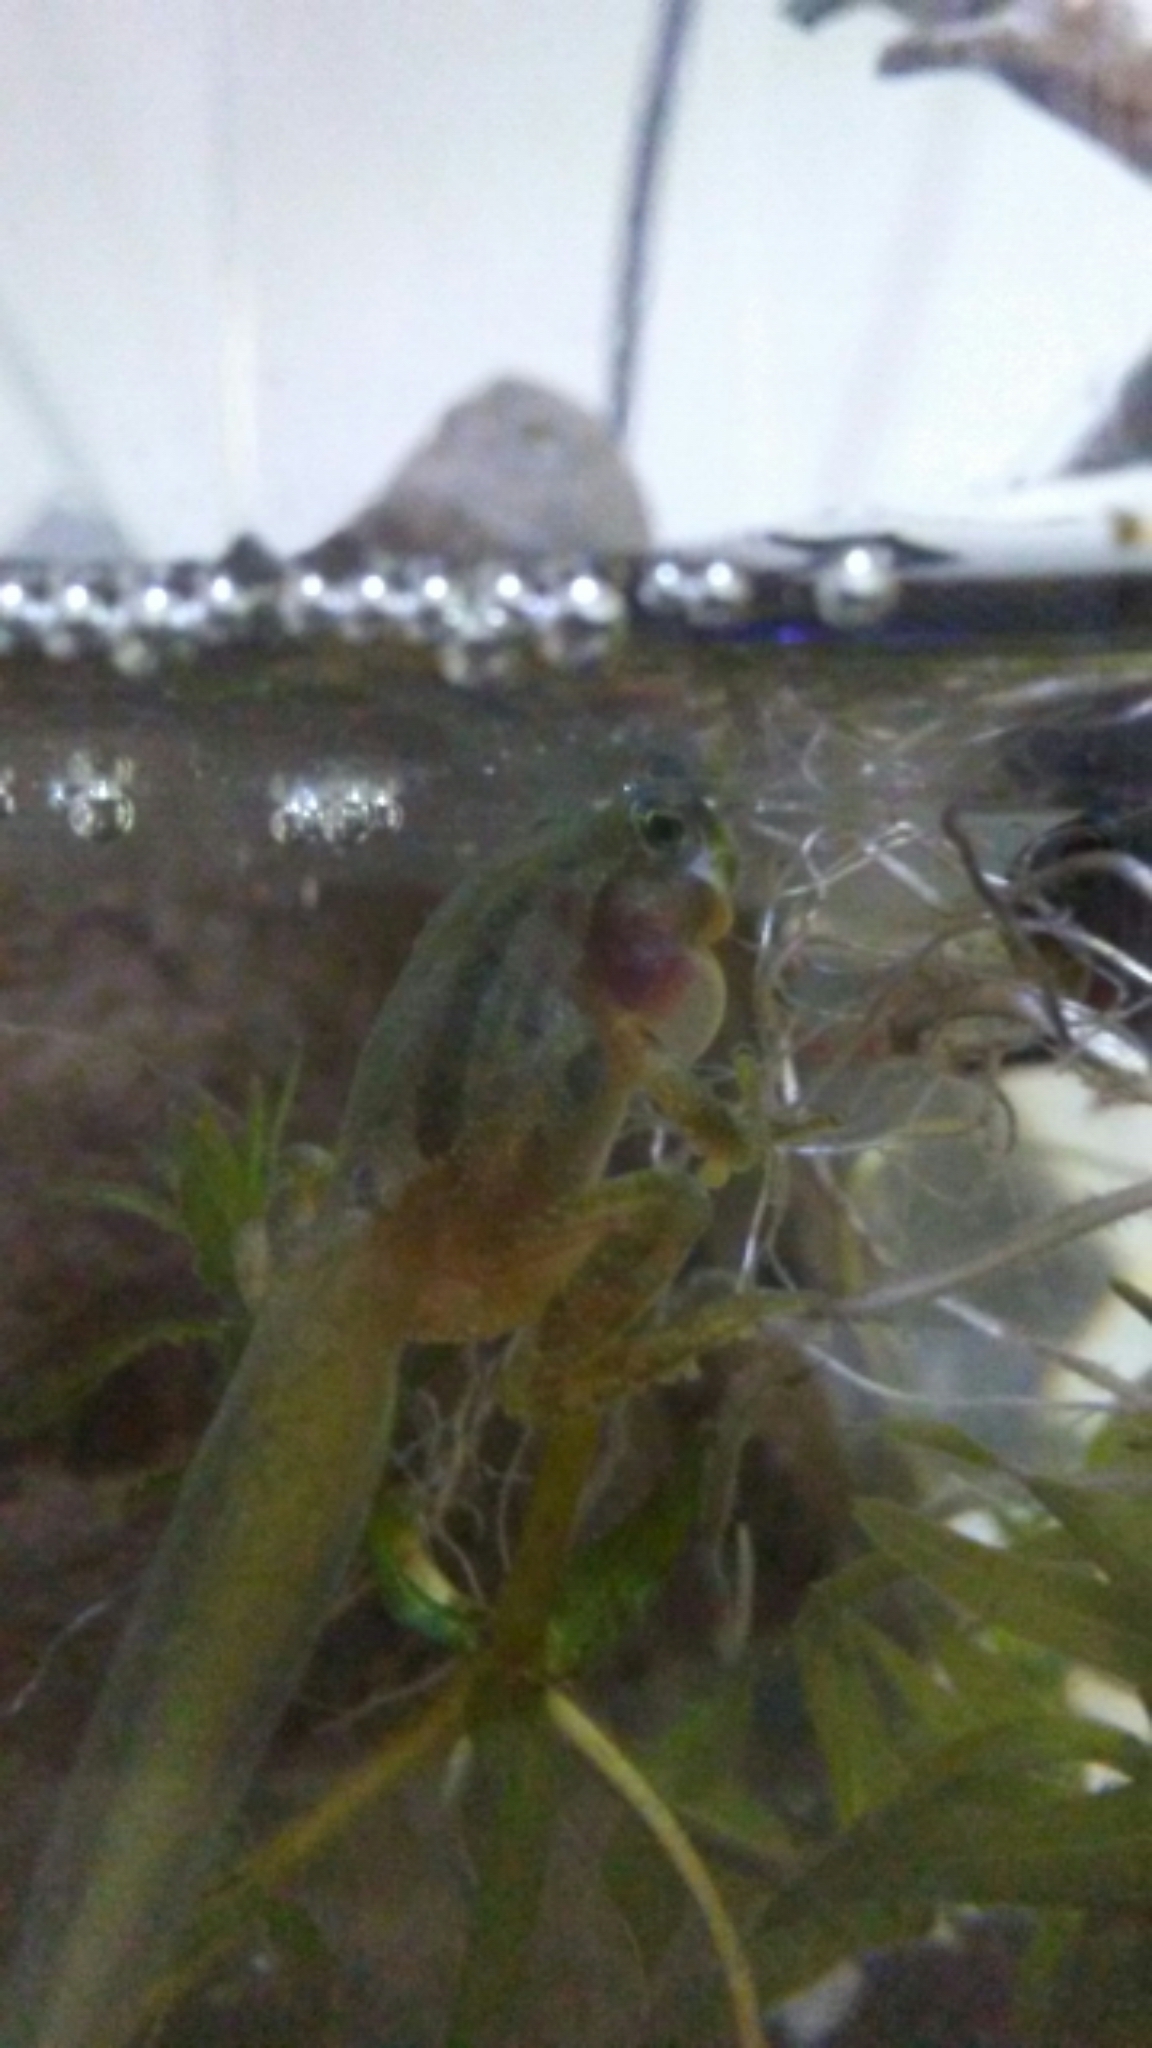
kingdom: Animalia
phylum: Chordata
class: Amphibia
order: Anura
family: Hylidae
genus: Pseudacris
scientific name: Pseudacris regilla
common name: Pacific chorus frog
